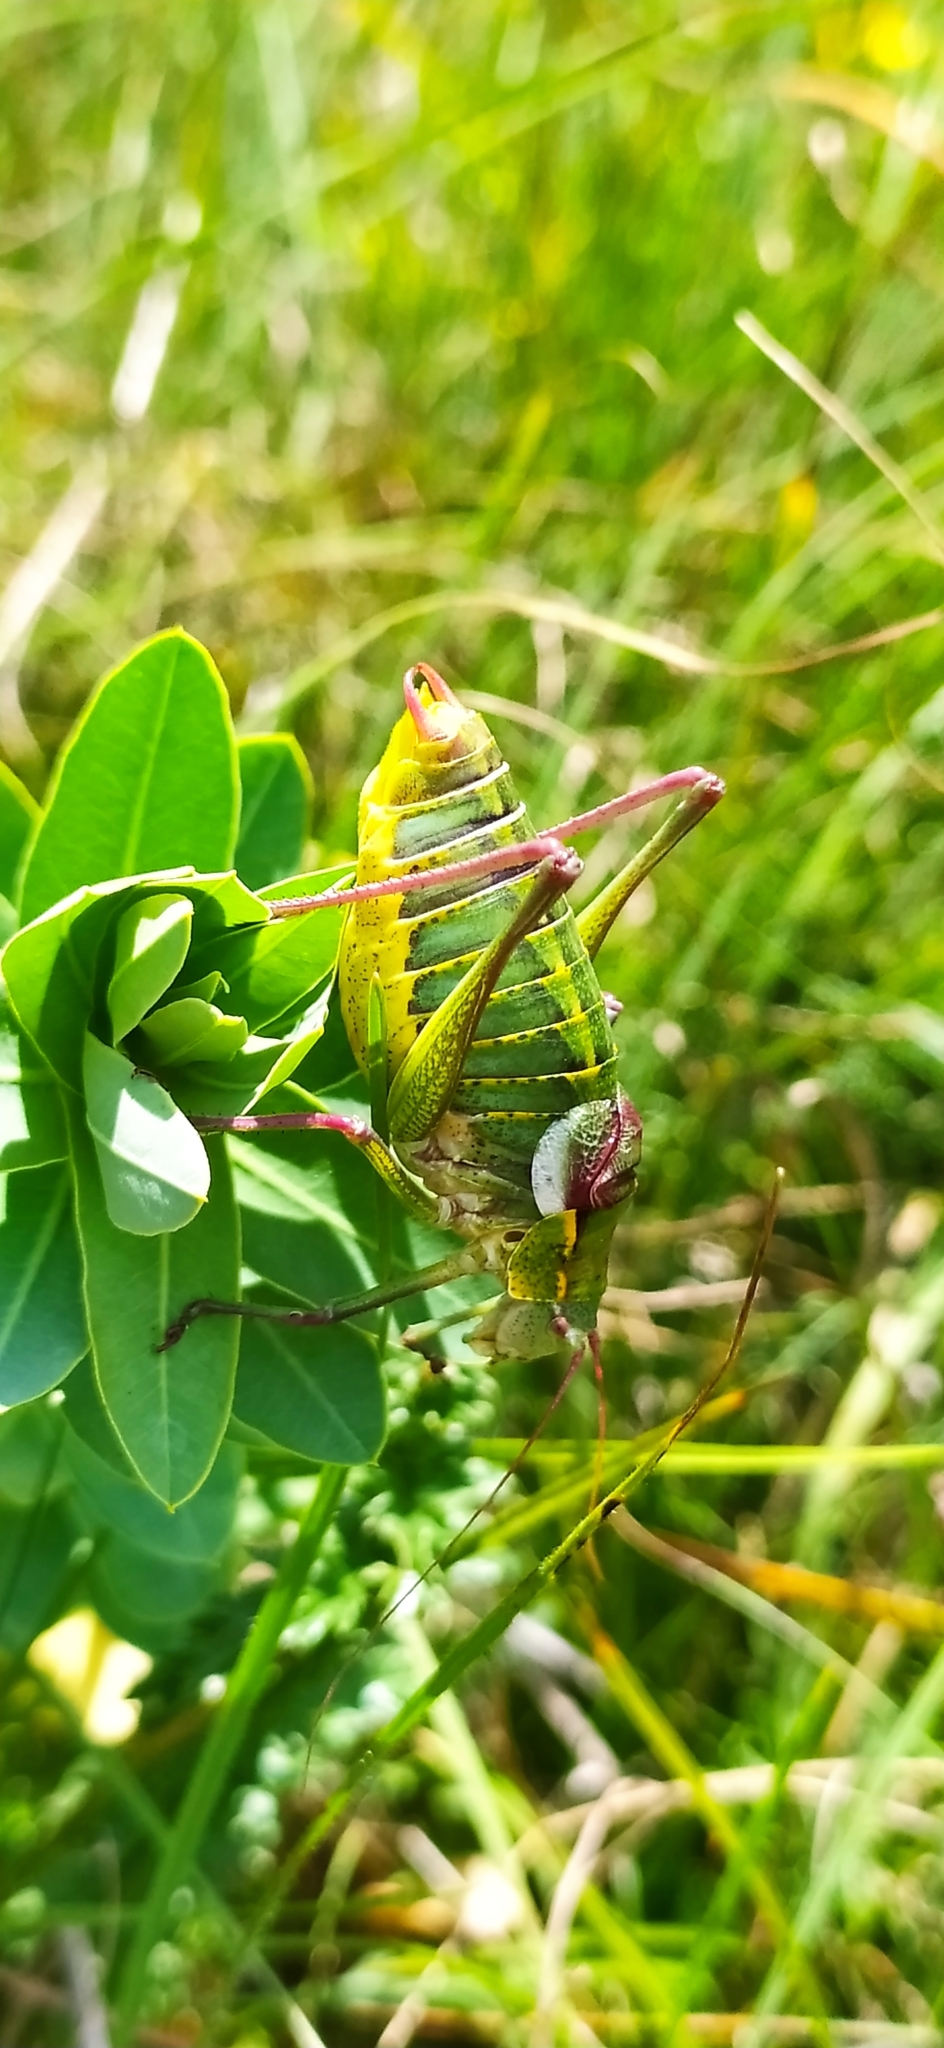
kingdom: Animalia
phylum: Arthropoda
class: Insecta
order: Orthoptera
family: Tettigoniidae
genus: Isophya
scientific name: Isophya taurica
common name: Krymean plump bush-cricket
